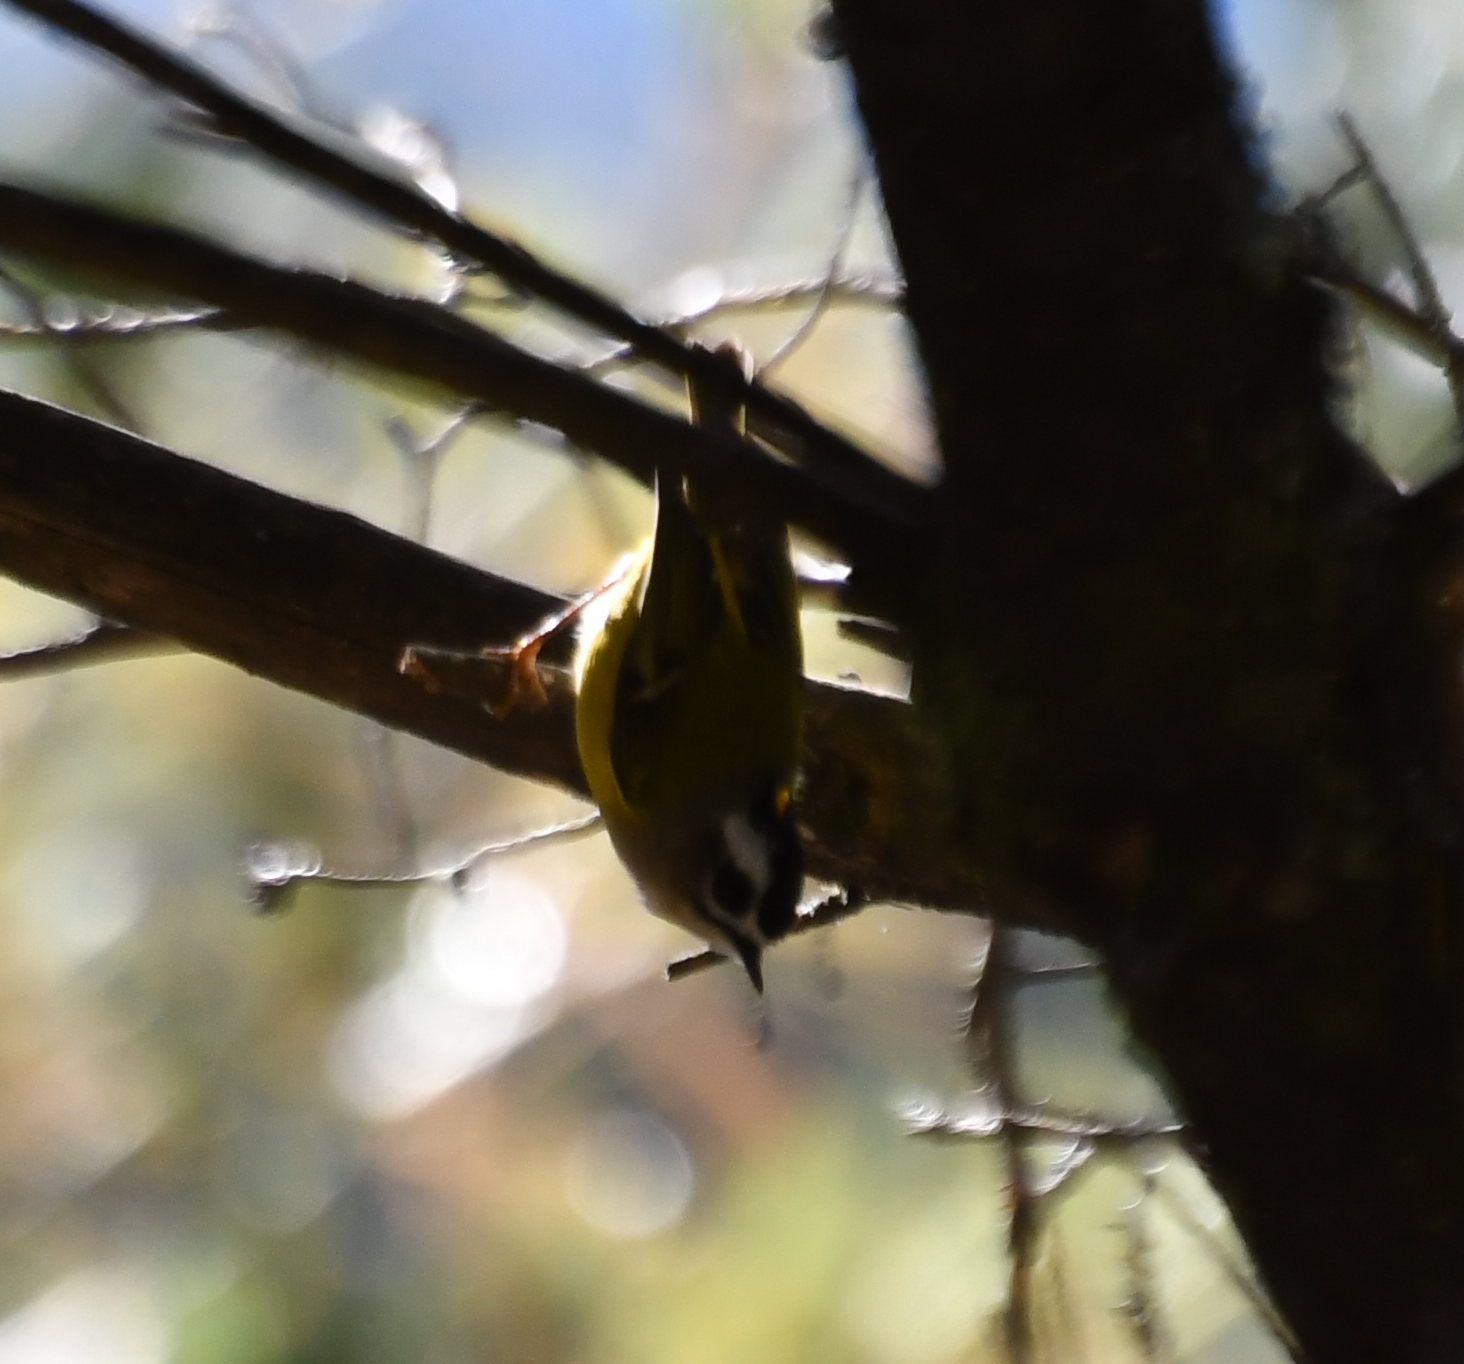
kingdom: Animalia
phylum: Chordata
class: Aves
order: Passeriformes
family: Regulidae
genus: Regulus
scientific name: Regulus goodfellowi
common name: Flamecrest
